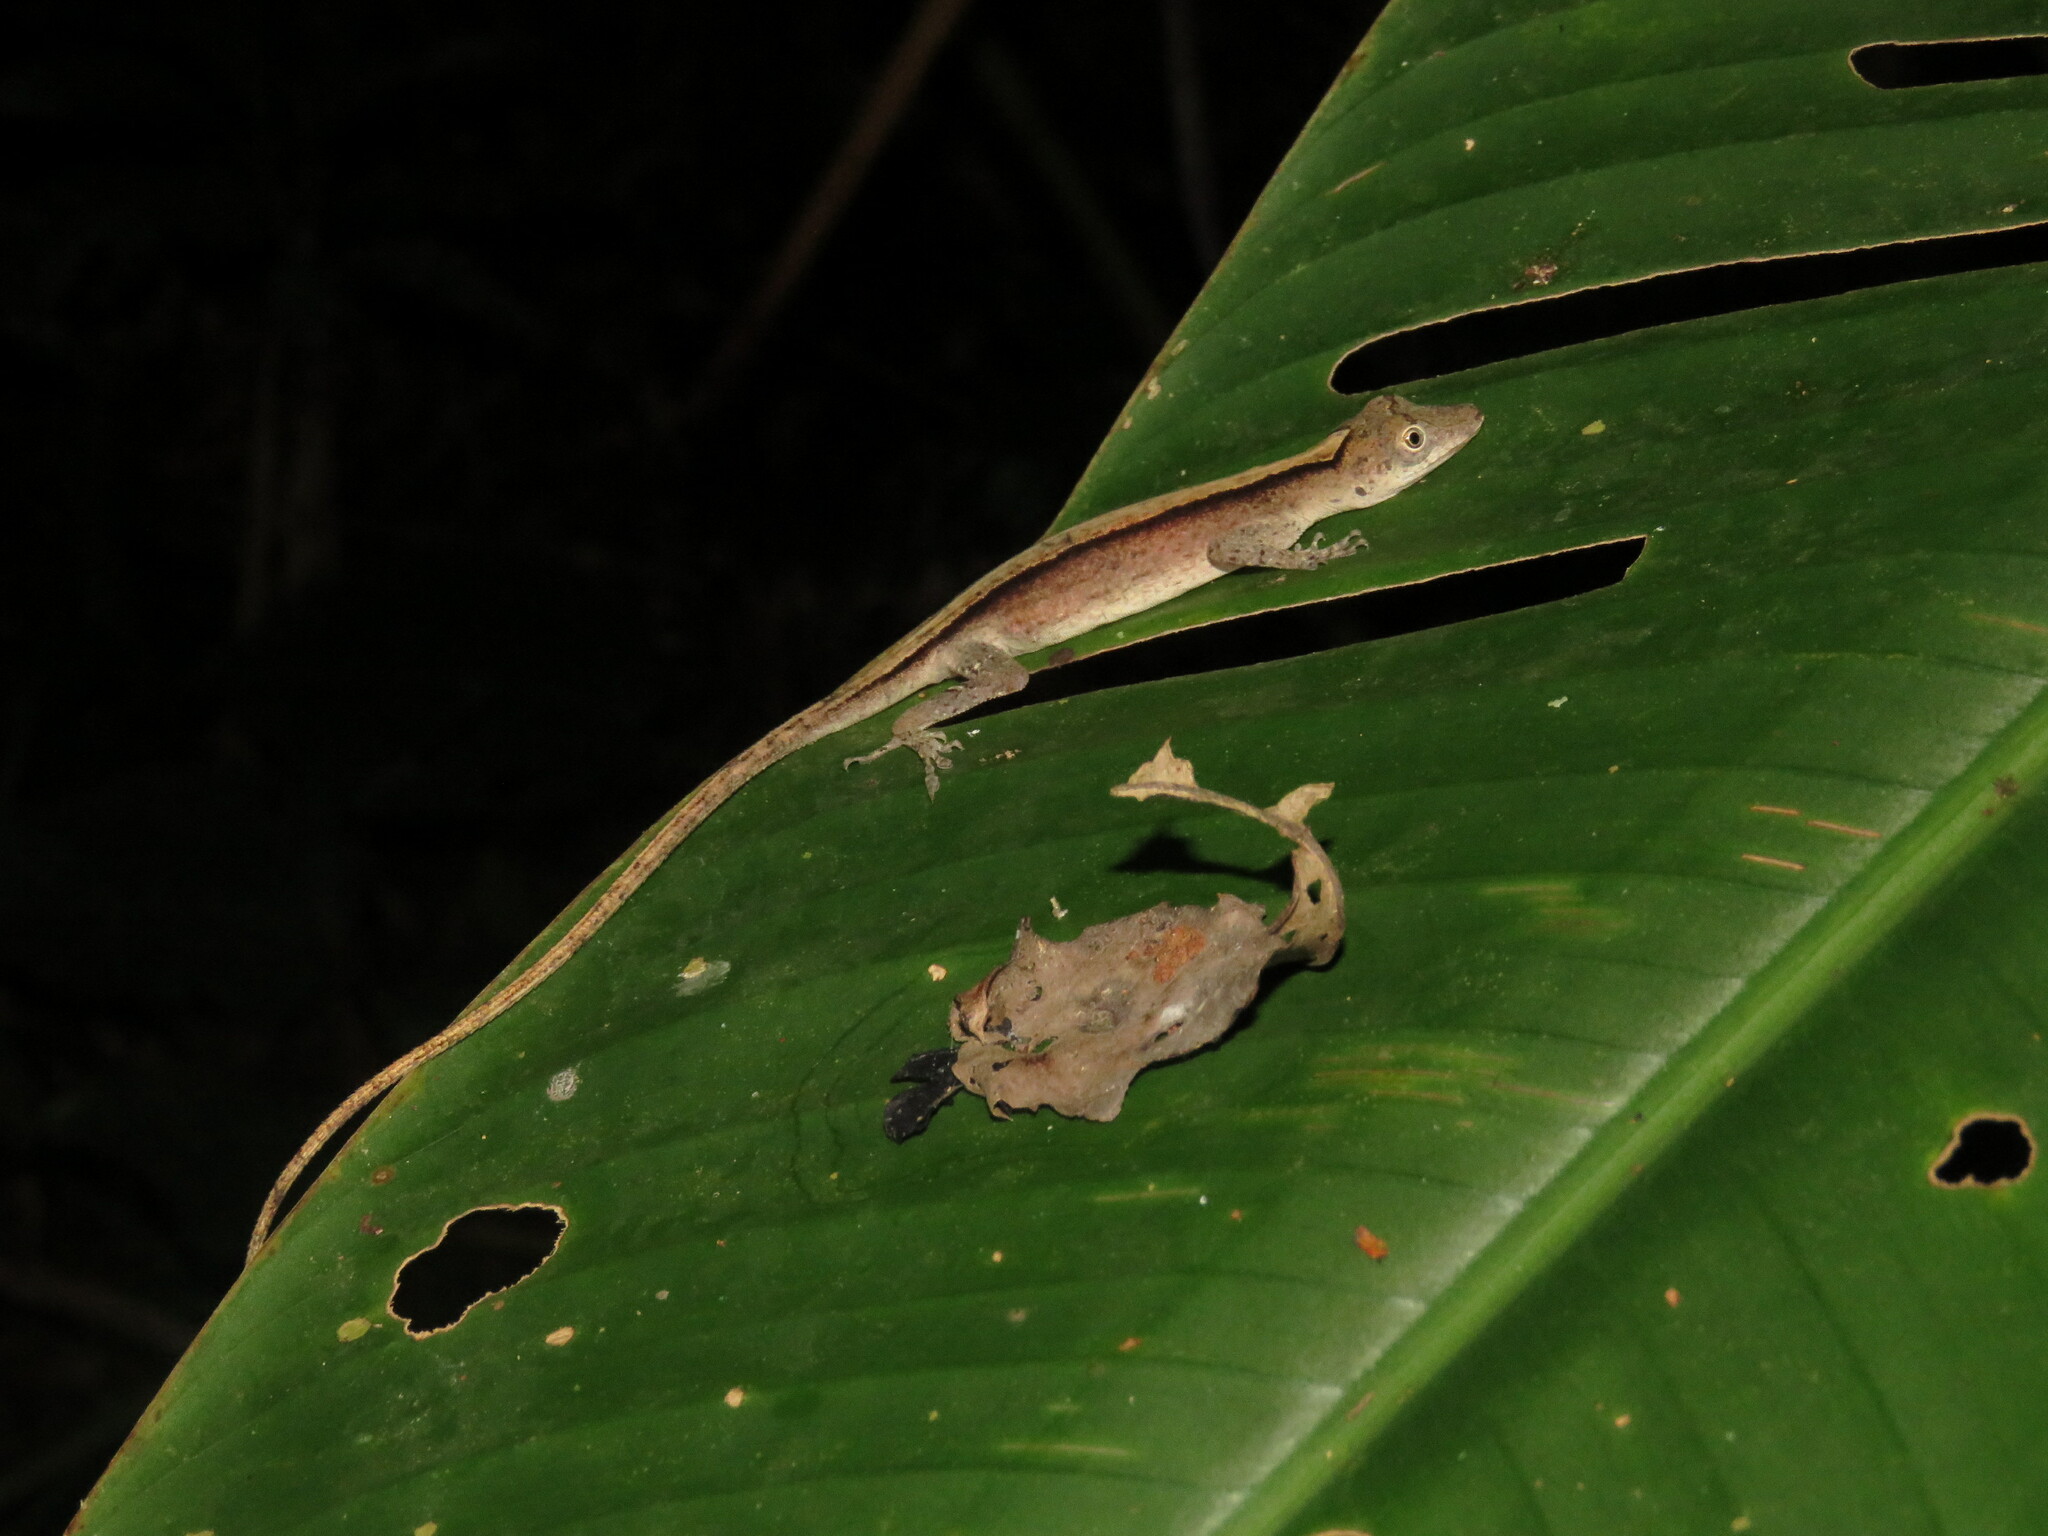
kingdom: Animalia
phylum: Chordata
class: Squamata
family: Dactyloidae
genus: Anolis
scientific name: Anolis fuscoauratus
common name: Brown-eared anole
